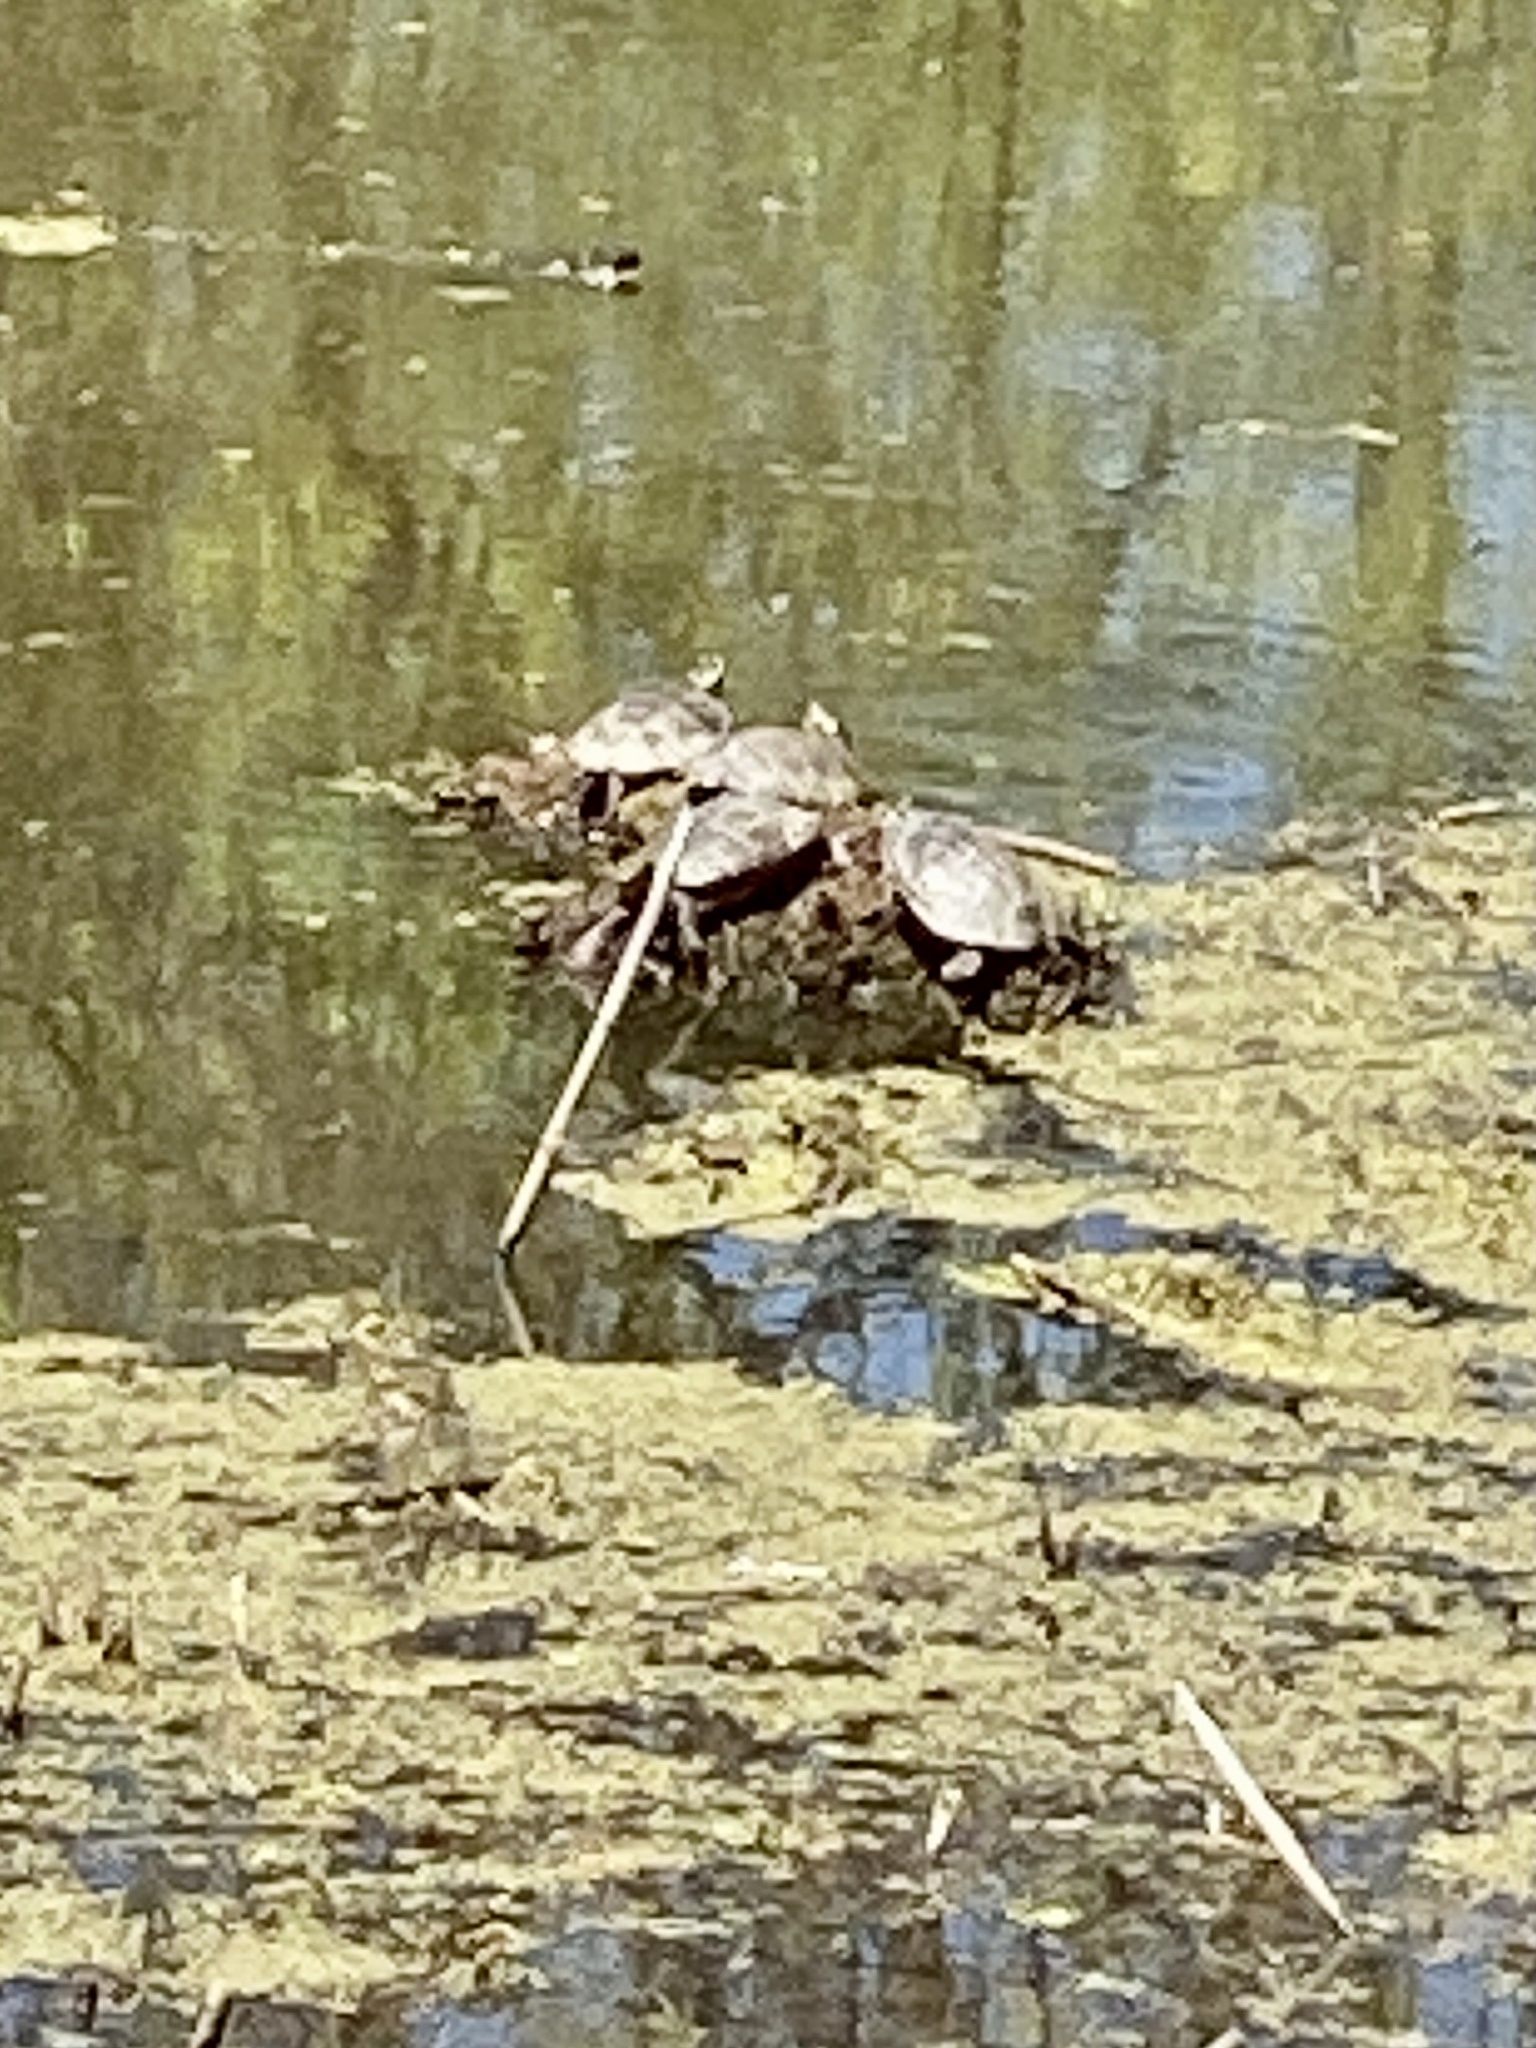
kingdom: Animalia
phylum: Chordata
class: Testudines
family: Emydidae
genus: Chrysemys
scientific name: Chrysemys picta
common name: Painted turtle
